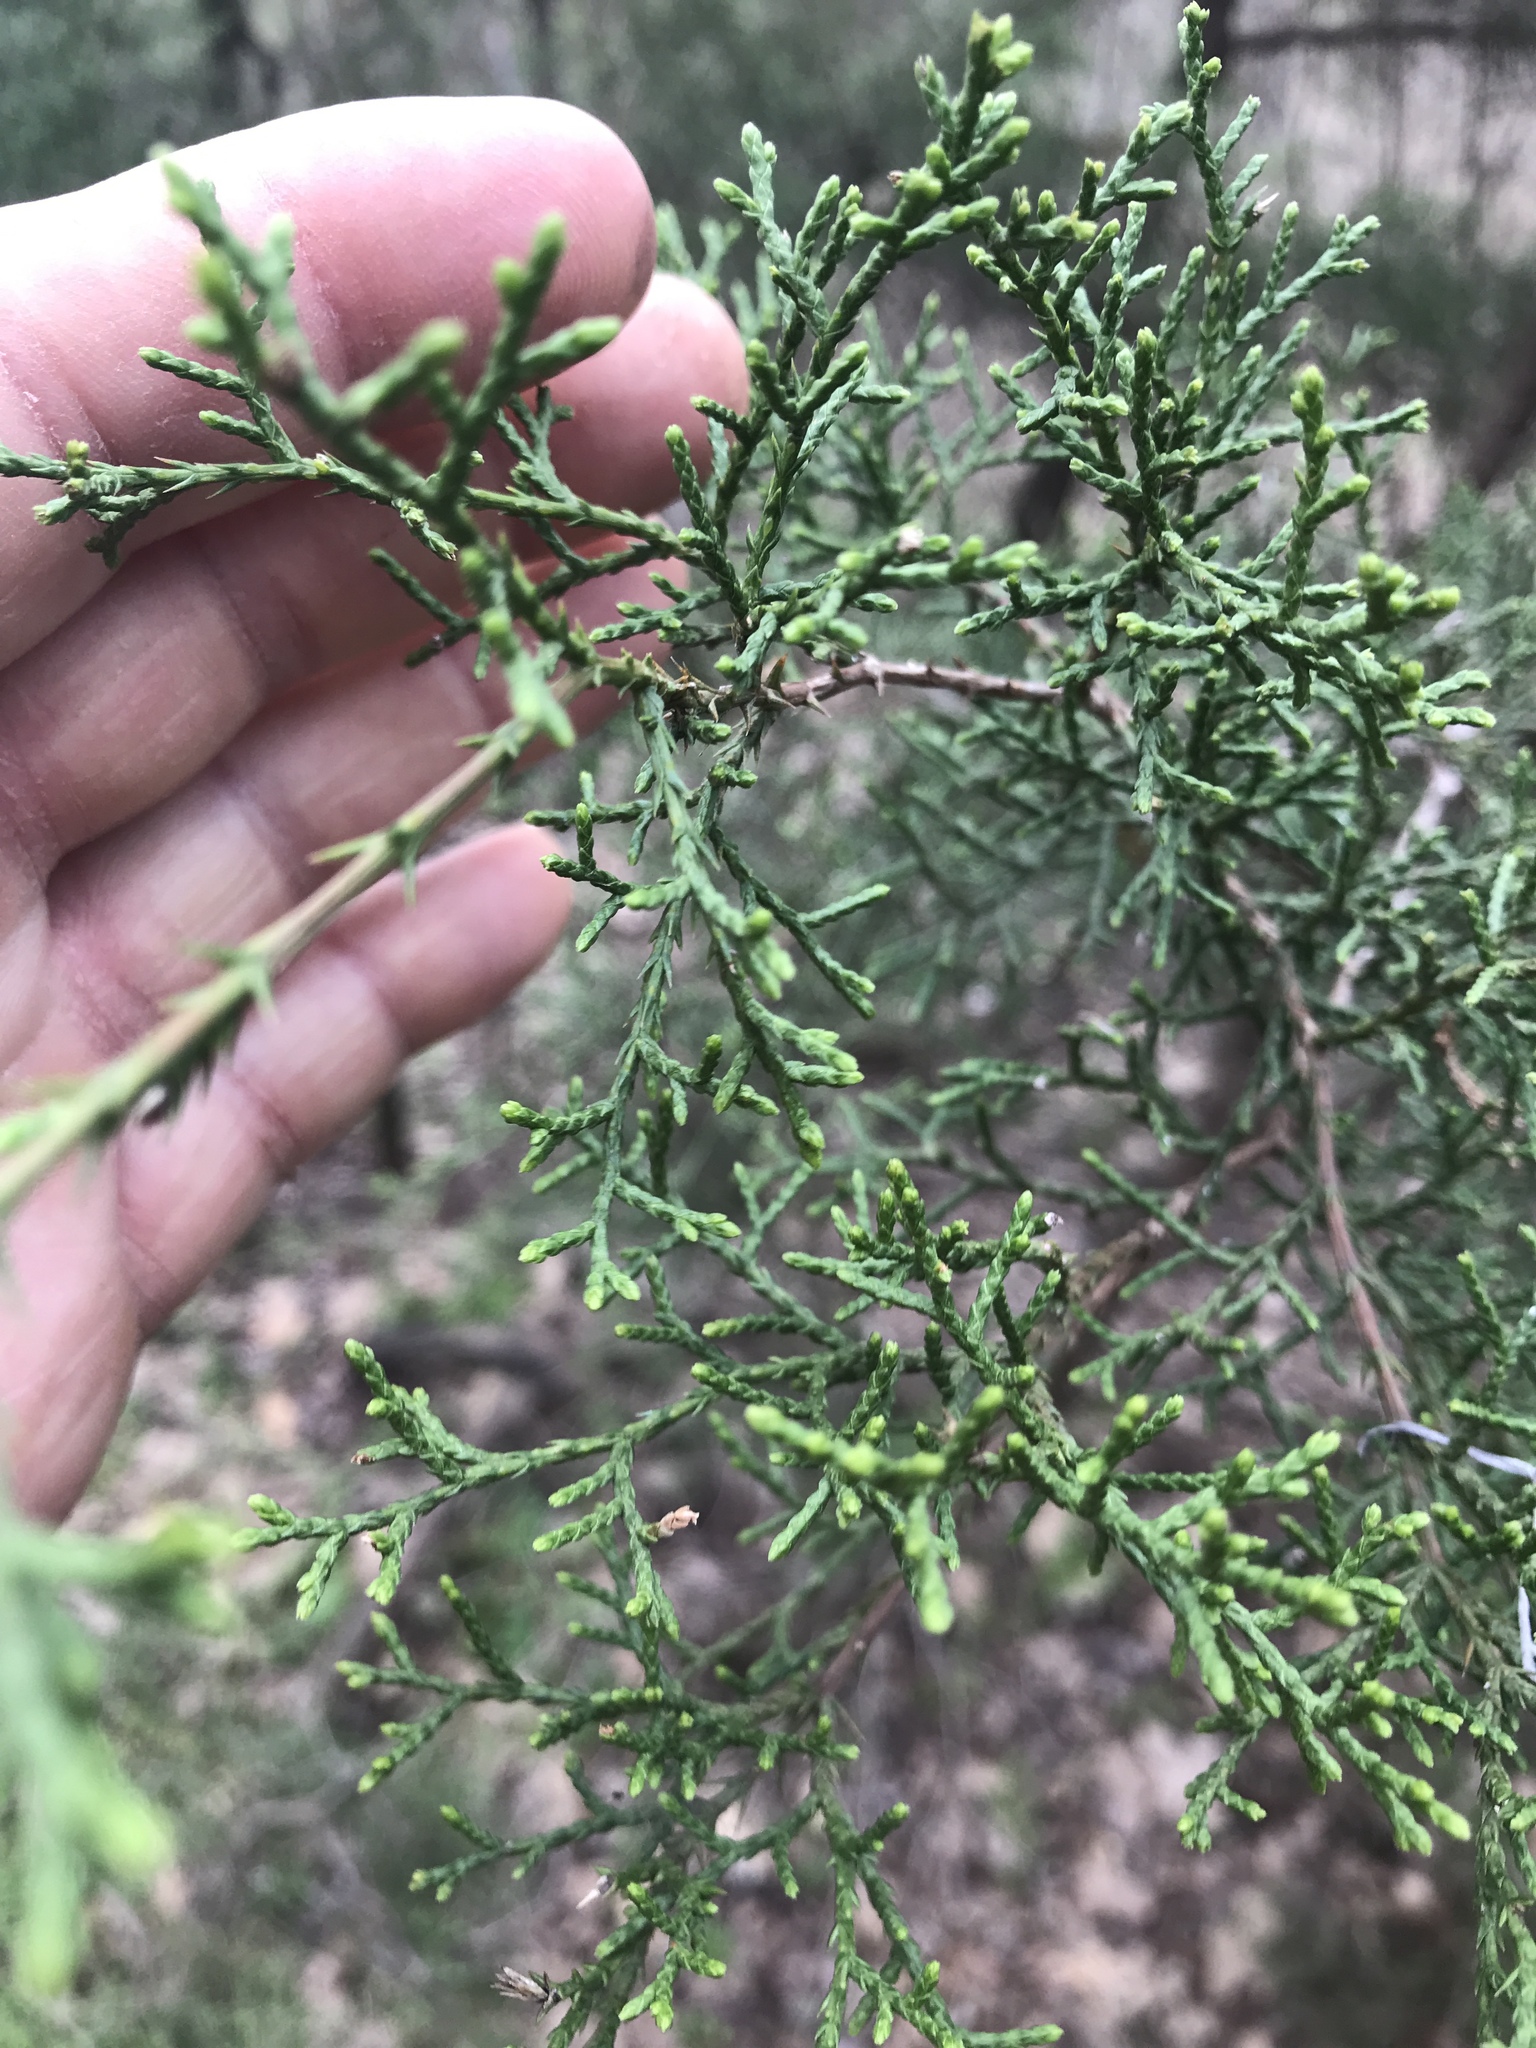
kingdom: Plantae
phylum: Tracheophyta
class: Pinopsida
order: Pinales
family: Cupressaceae
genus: Juniperus
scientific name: Juniperus ashei
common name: Mexican juniper
